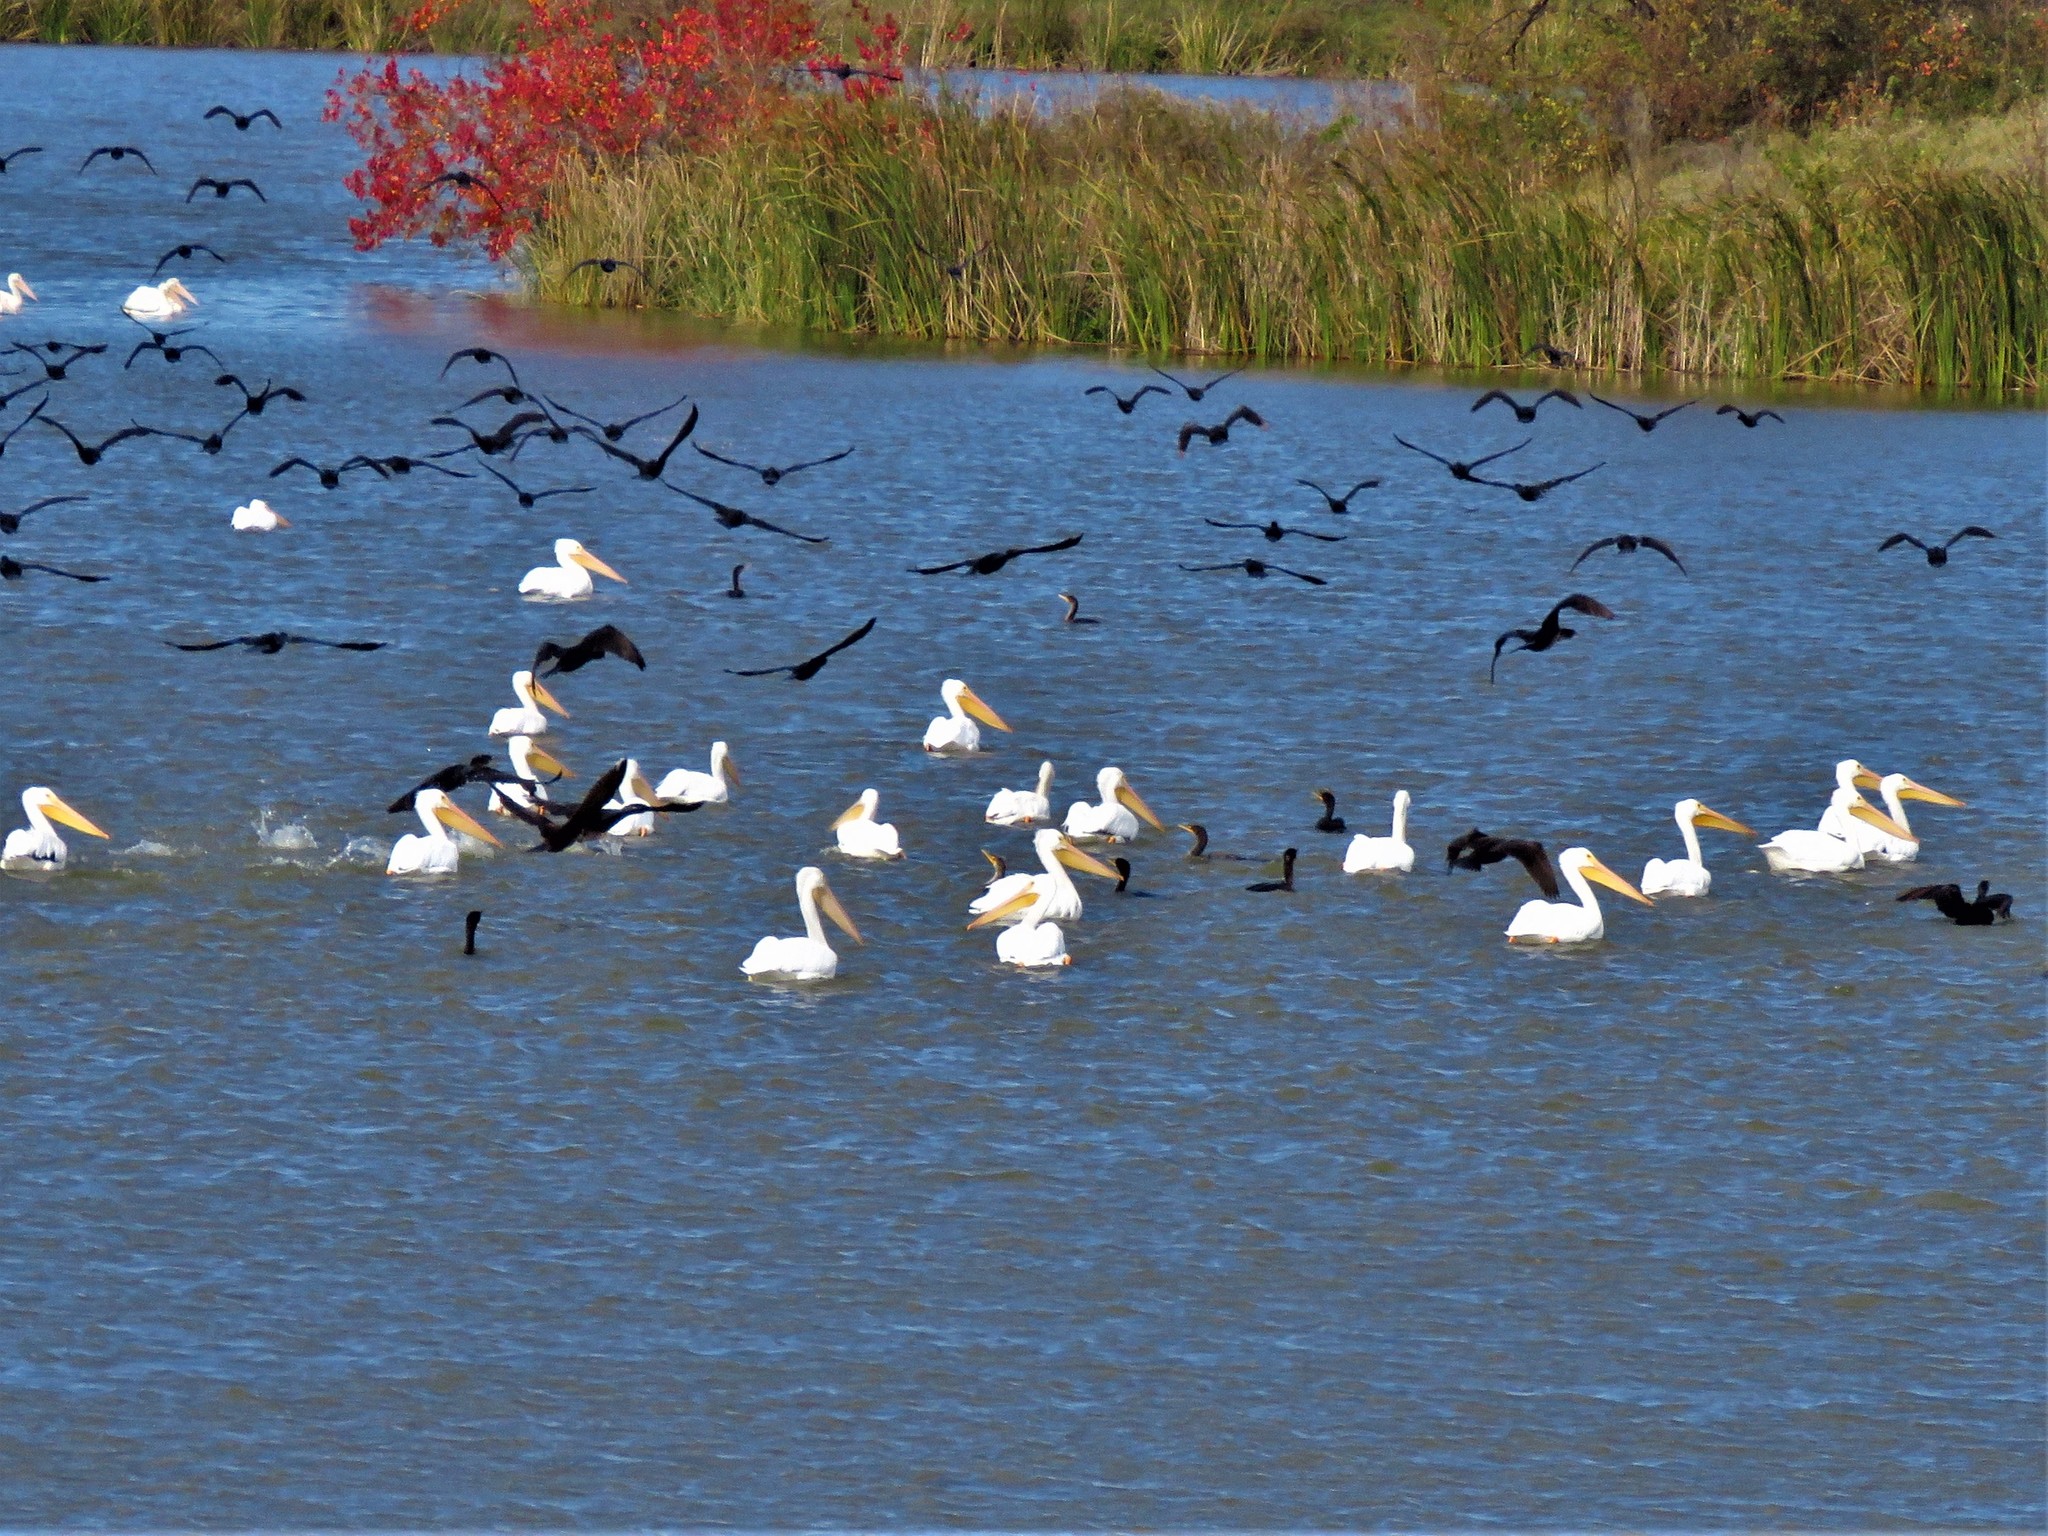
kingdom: Animalia
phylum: Chordata
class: Aves
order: Pelecaniformes
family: Pelecanidae
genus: Pelecanus
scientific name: Pelecanus erythrorhynchos
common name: American white pelican
